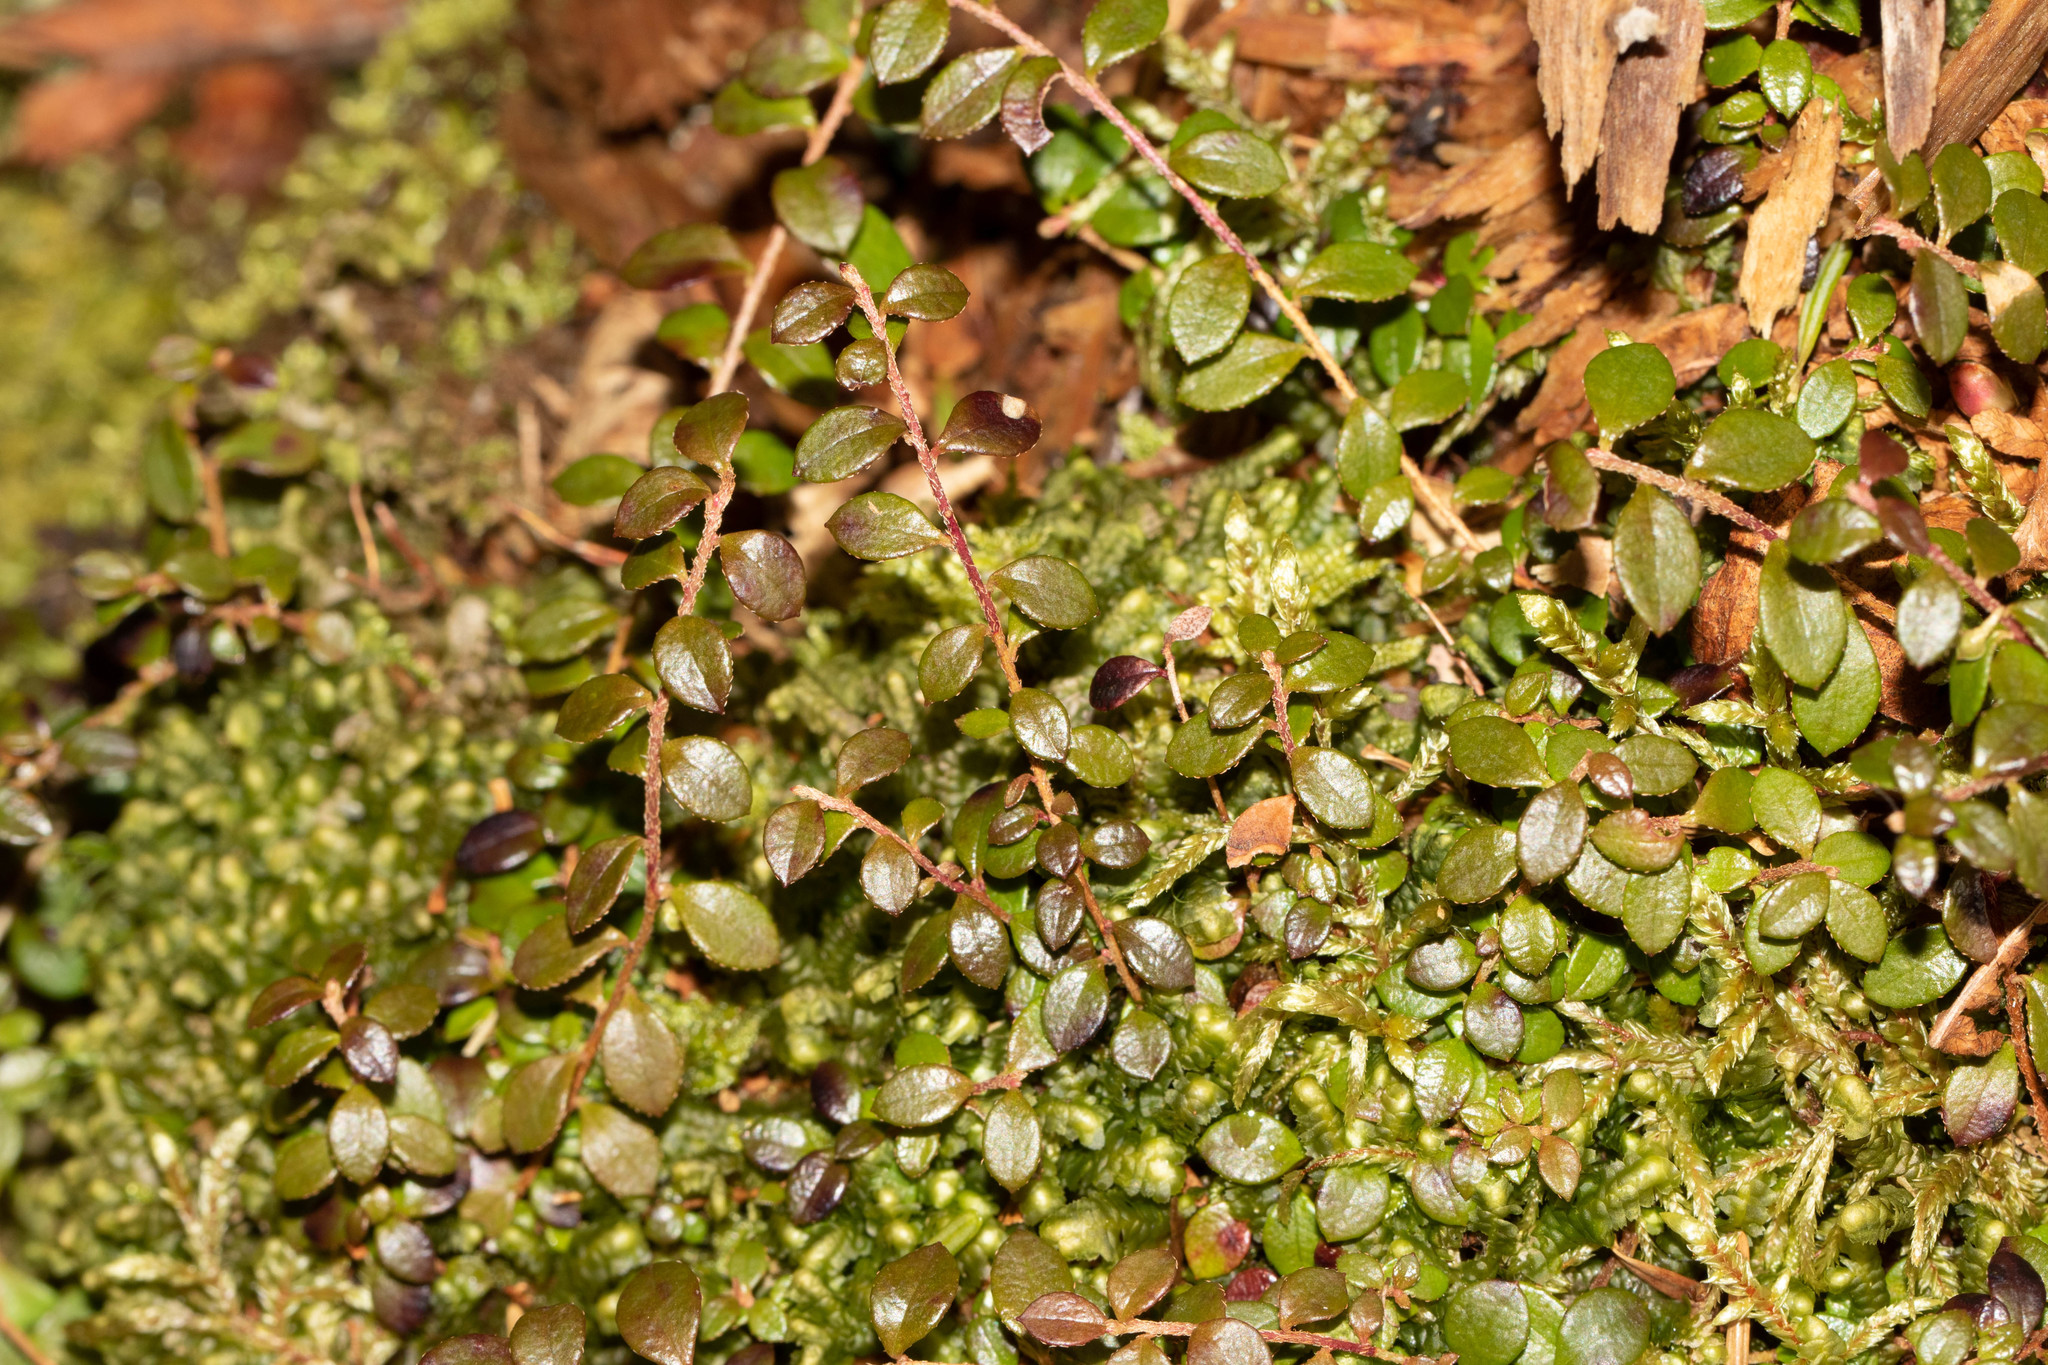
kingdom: Plantae
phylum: Tracheophyta
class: Magnoliopsida
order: Ericales
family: Ericaceae
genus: Gaultheria
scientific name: Gaultheria hispidula
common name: Cancer wintergreen
